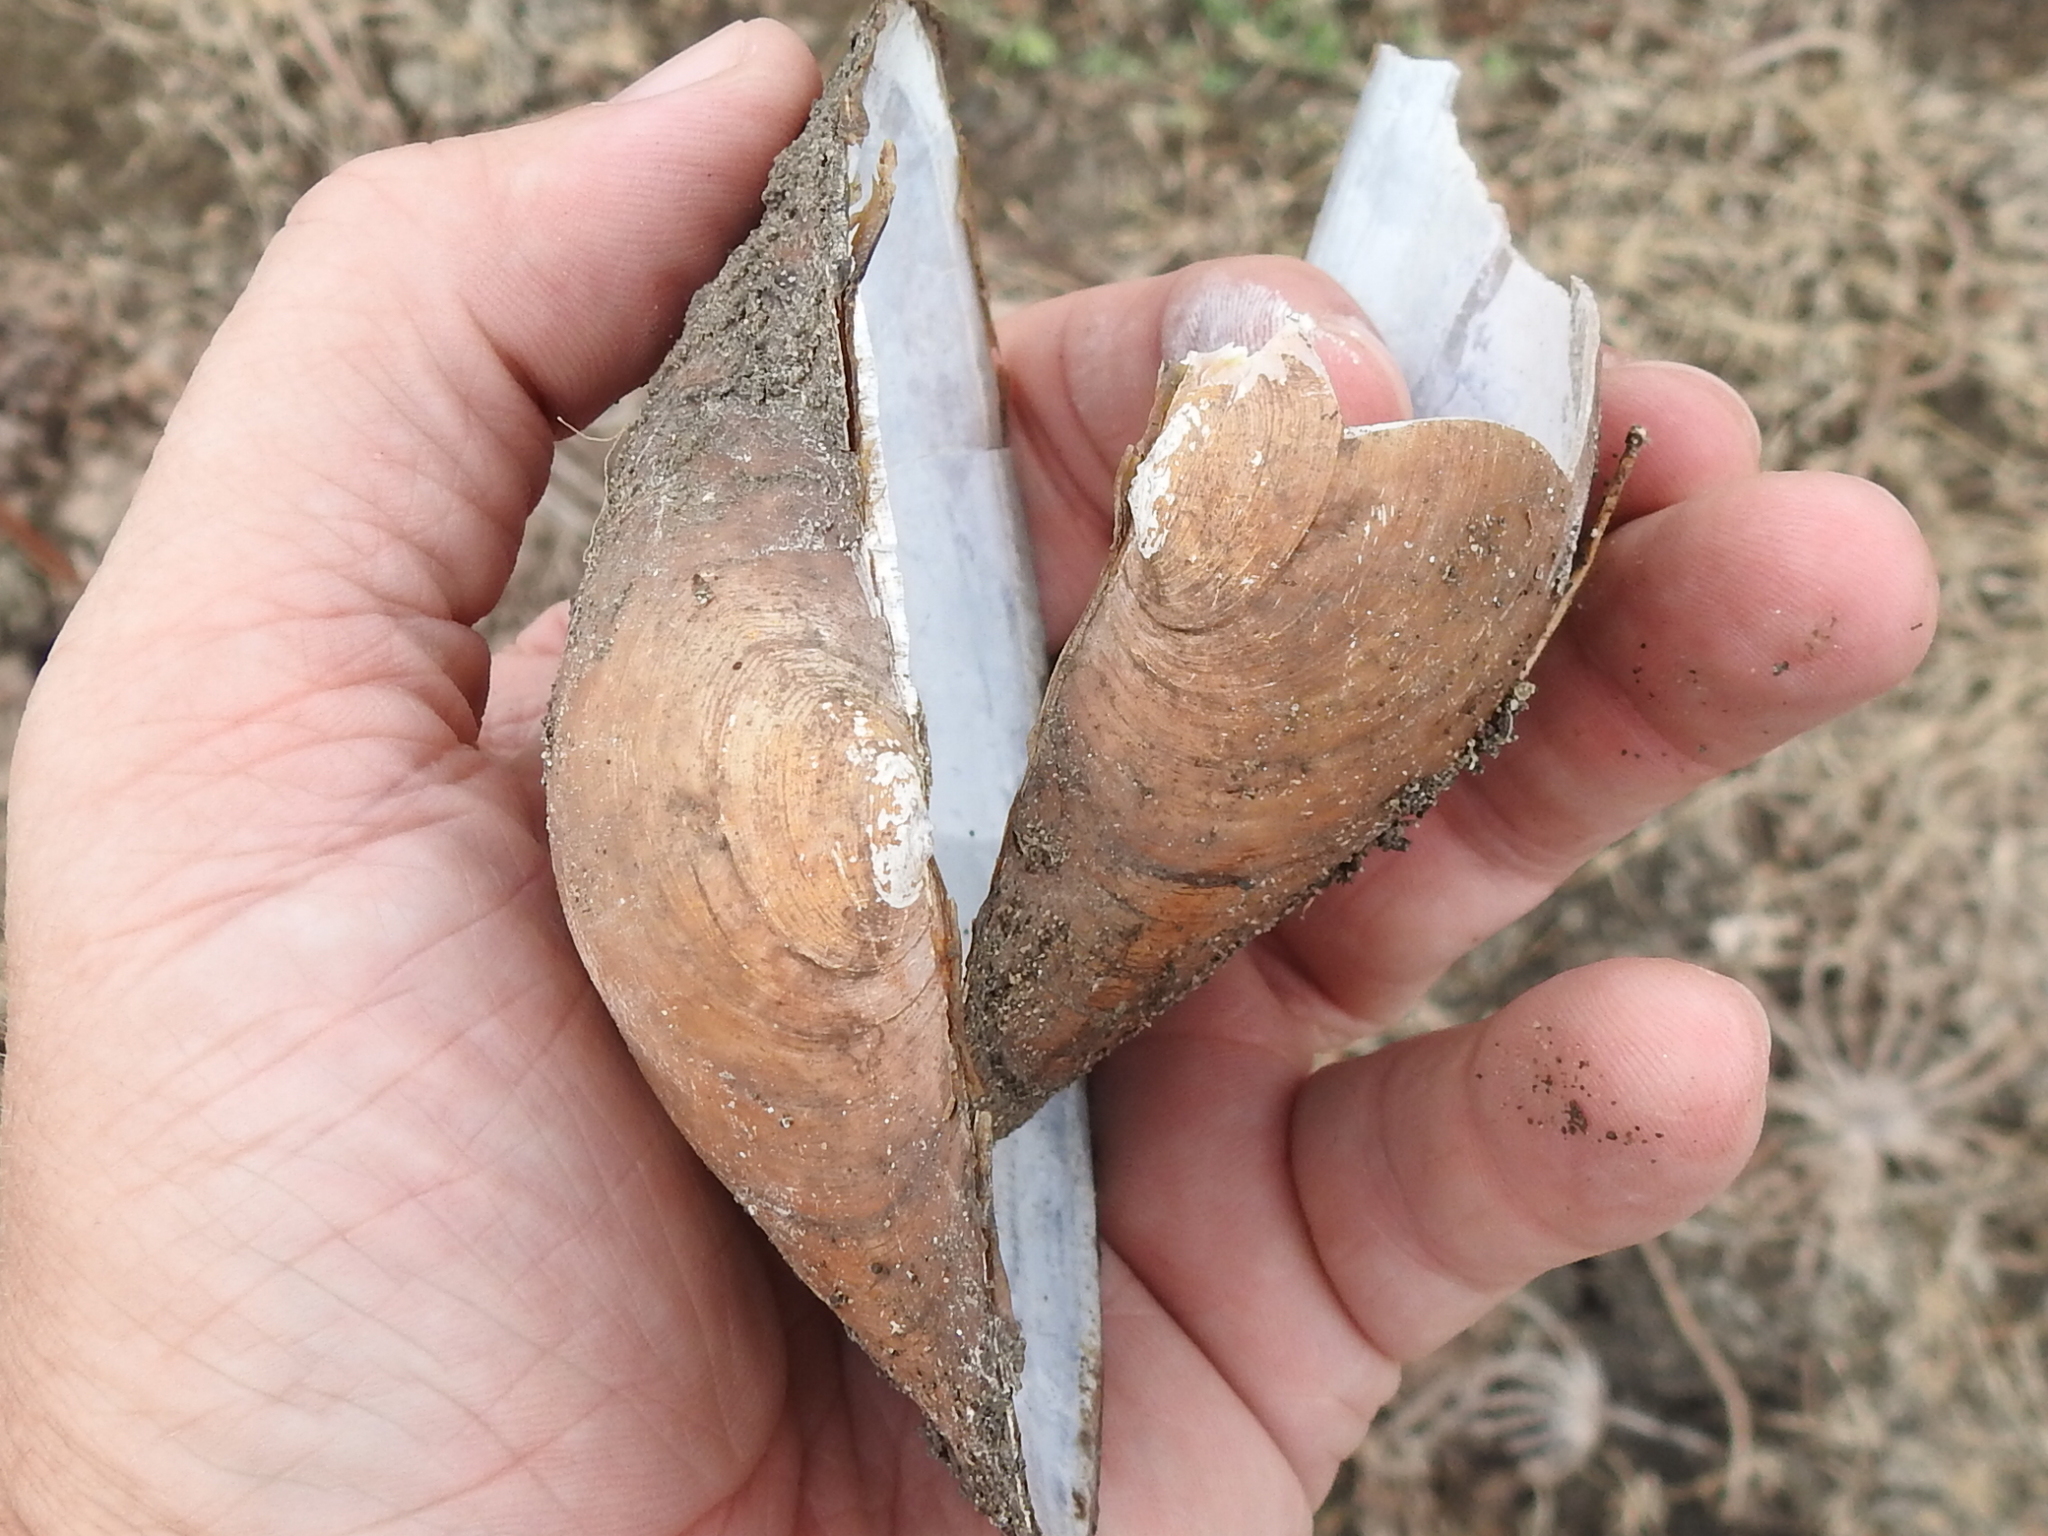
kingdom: Animalia
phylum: Mollusca
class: Bivalvia
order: Unionida
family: Unionidae
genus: Pyganodon
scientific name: Pyganodon grandis
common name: Giant floater
